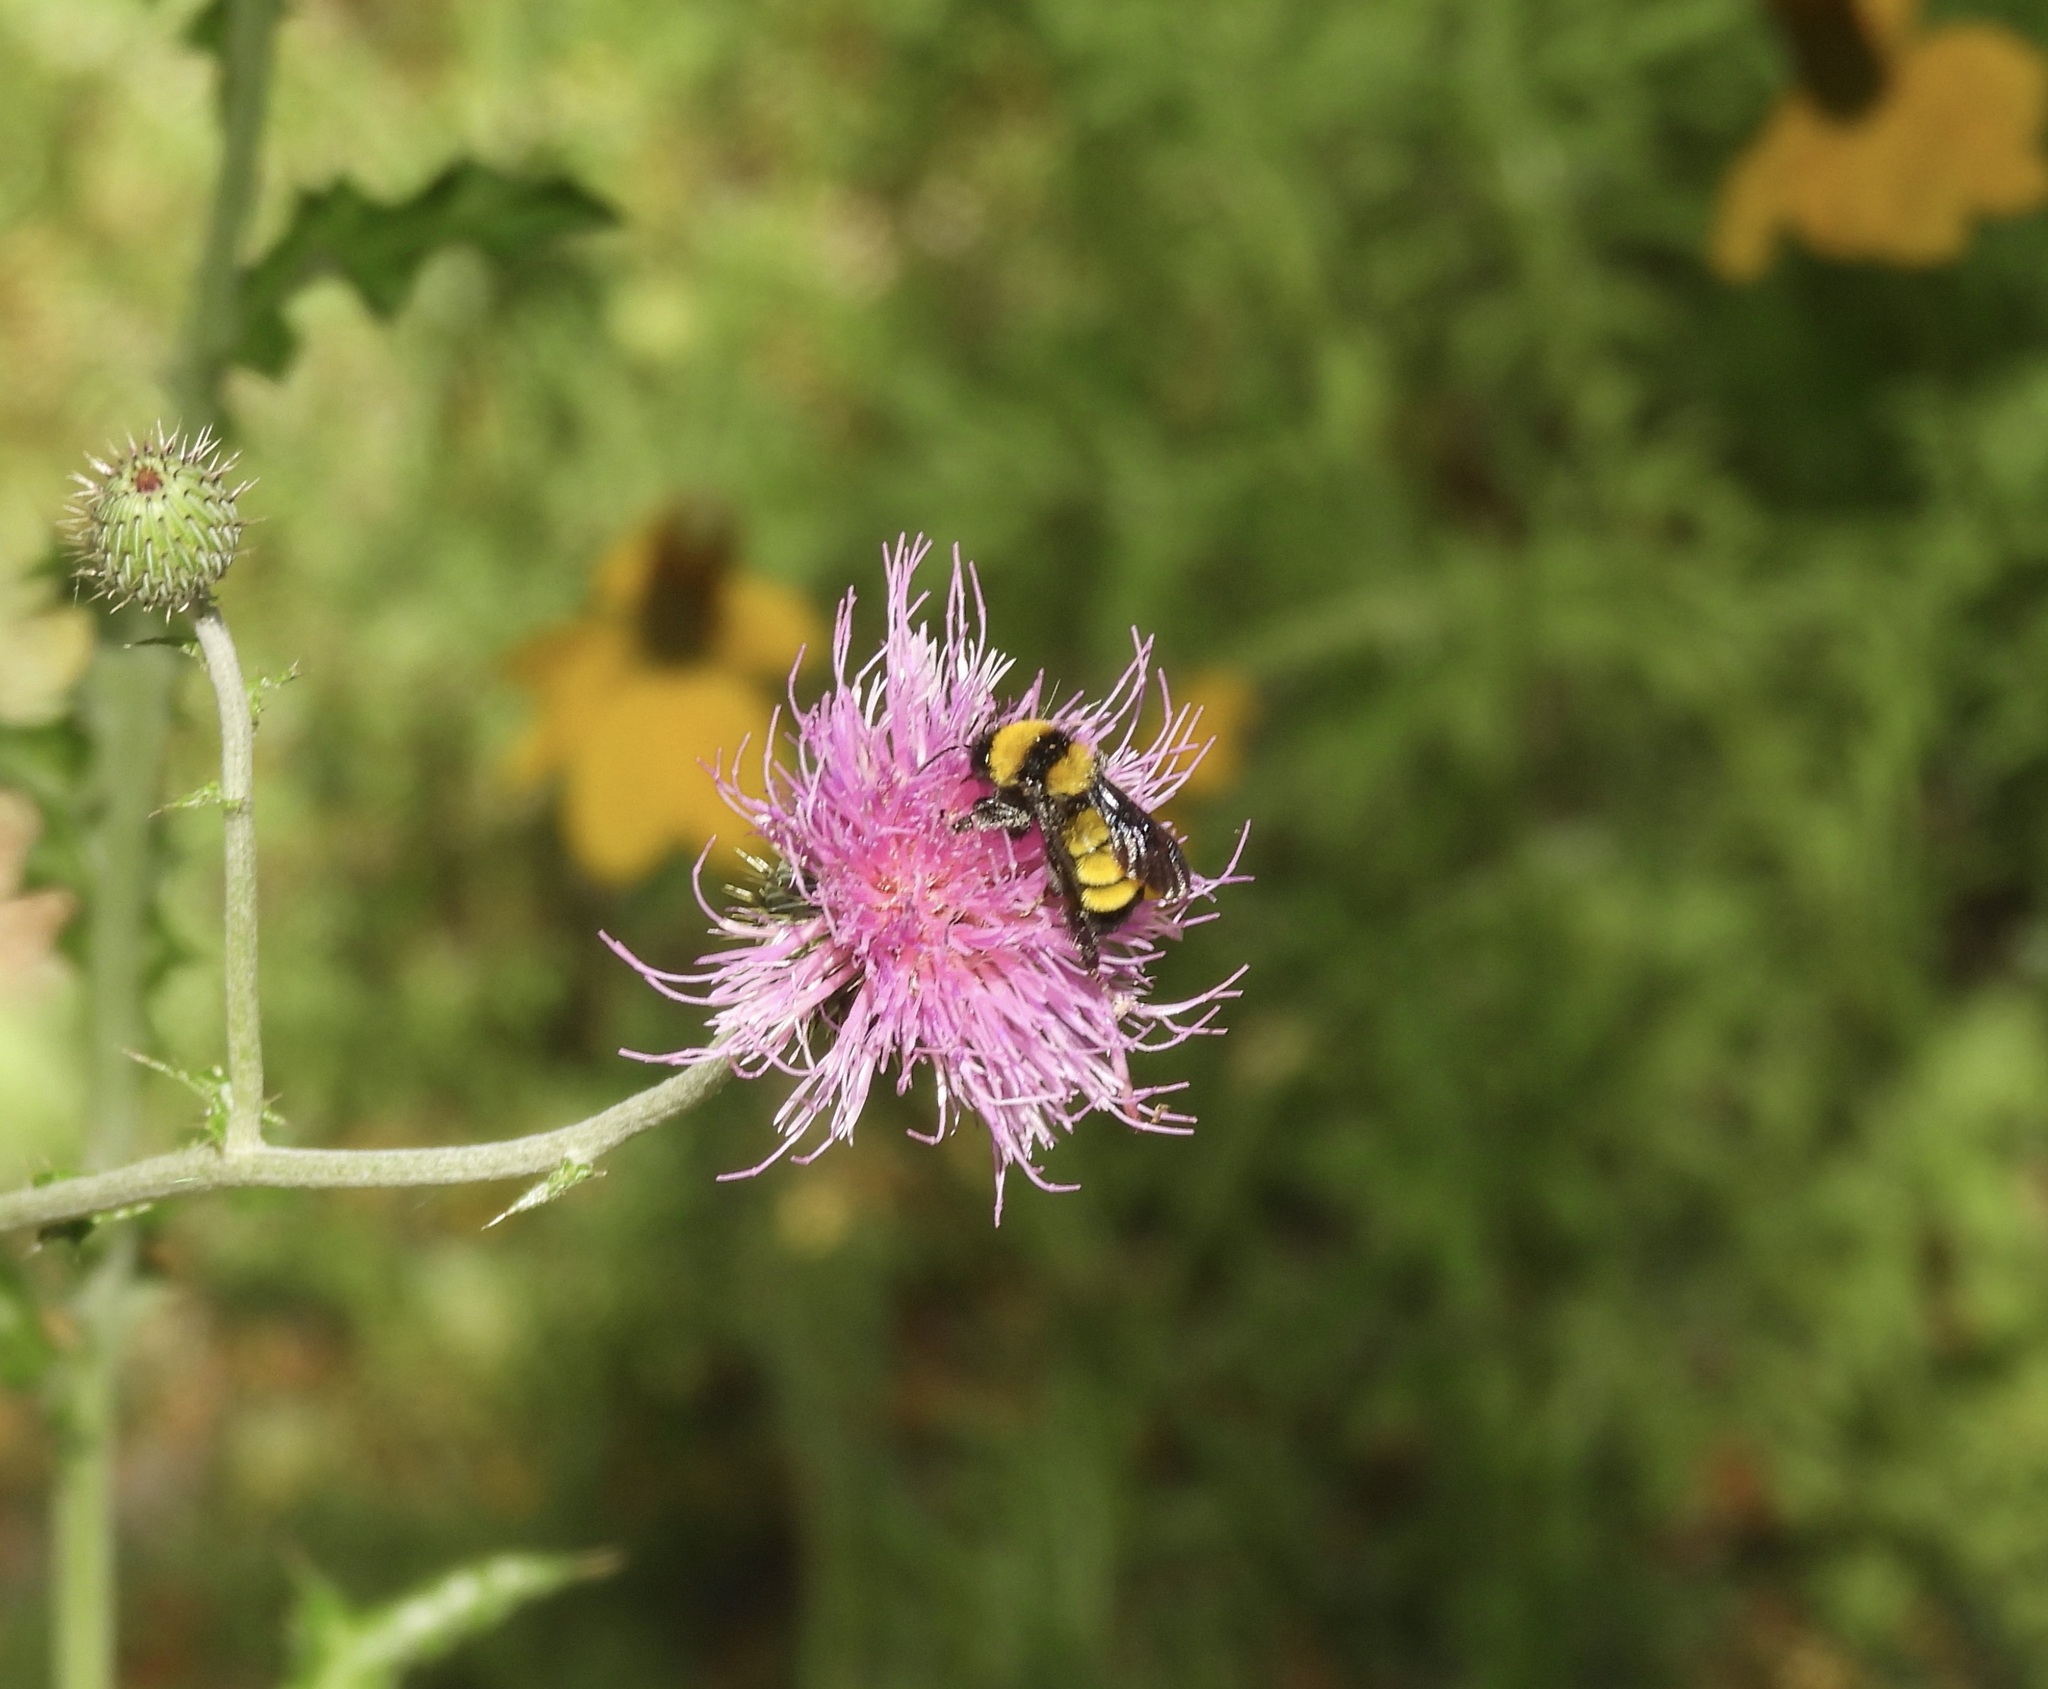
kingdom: Animalia
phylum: Arthropoda
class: Insecta
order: Hymenoptera
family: Apidae
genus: Bombus
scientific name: Bombus sonorus
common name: Sonoran bumble bee
